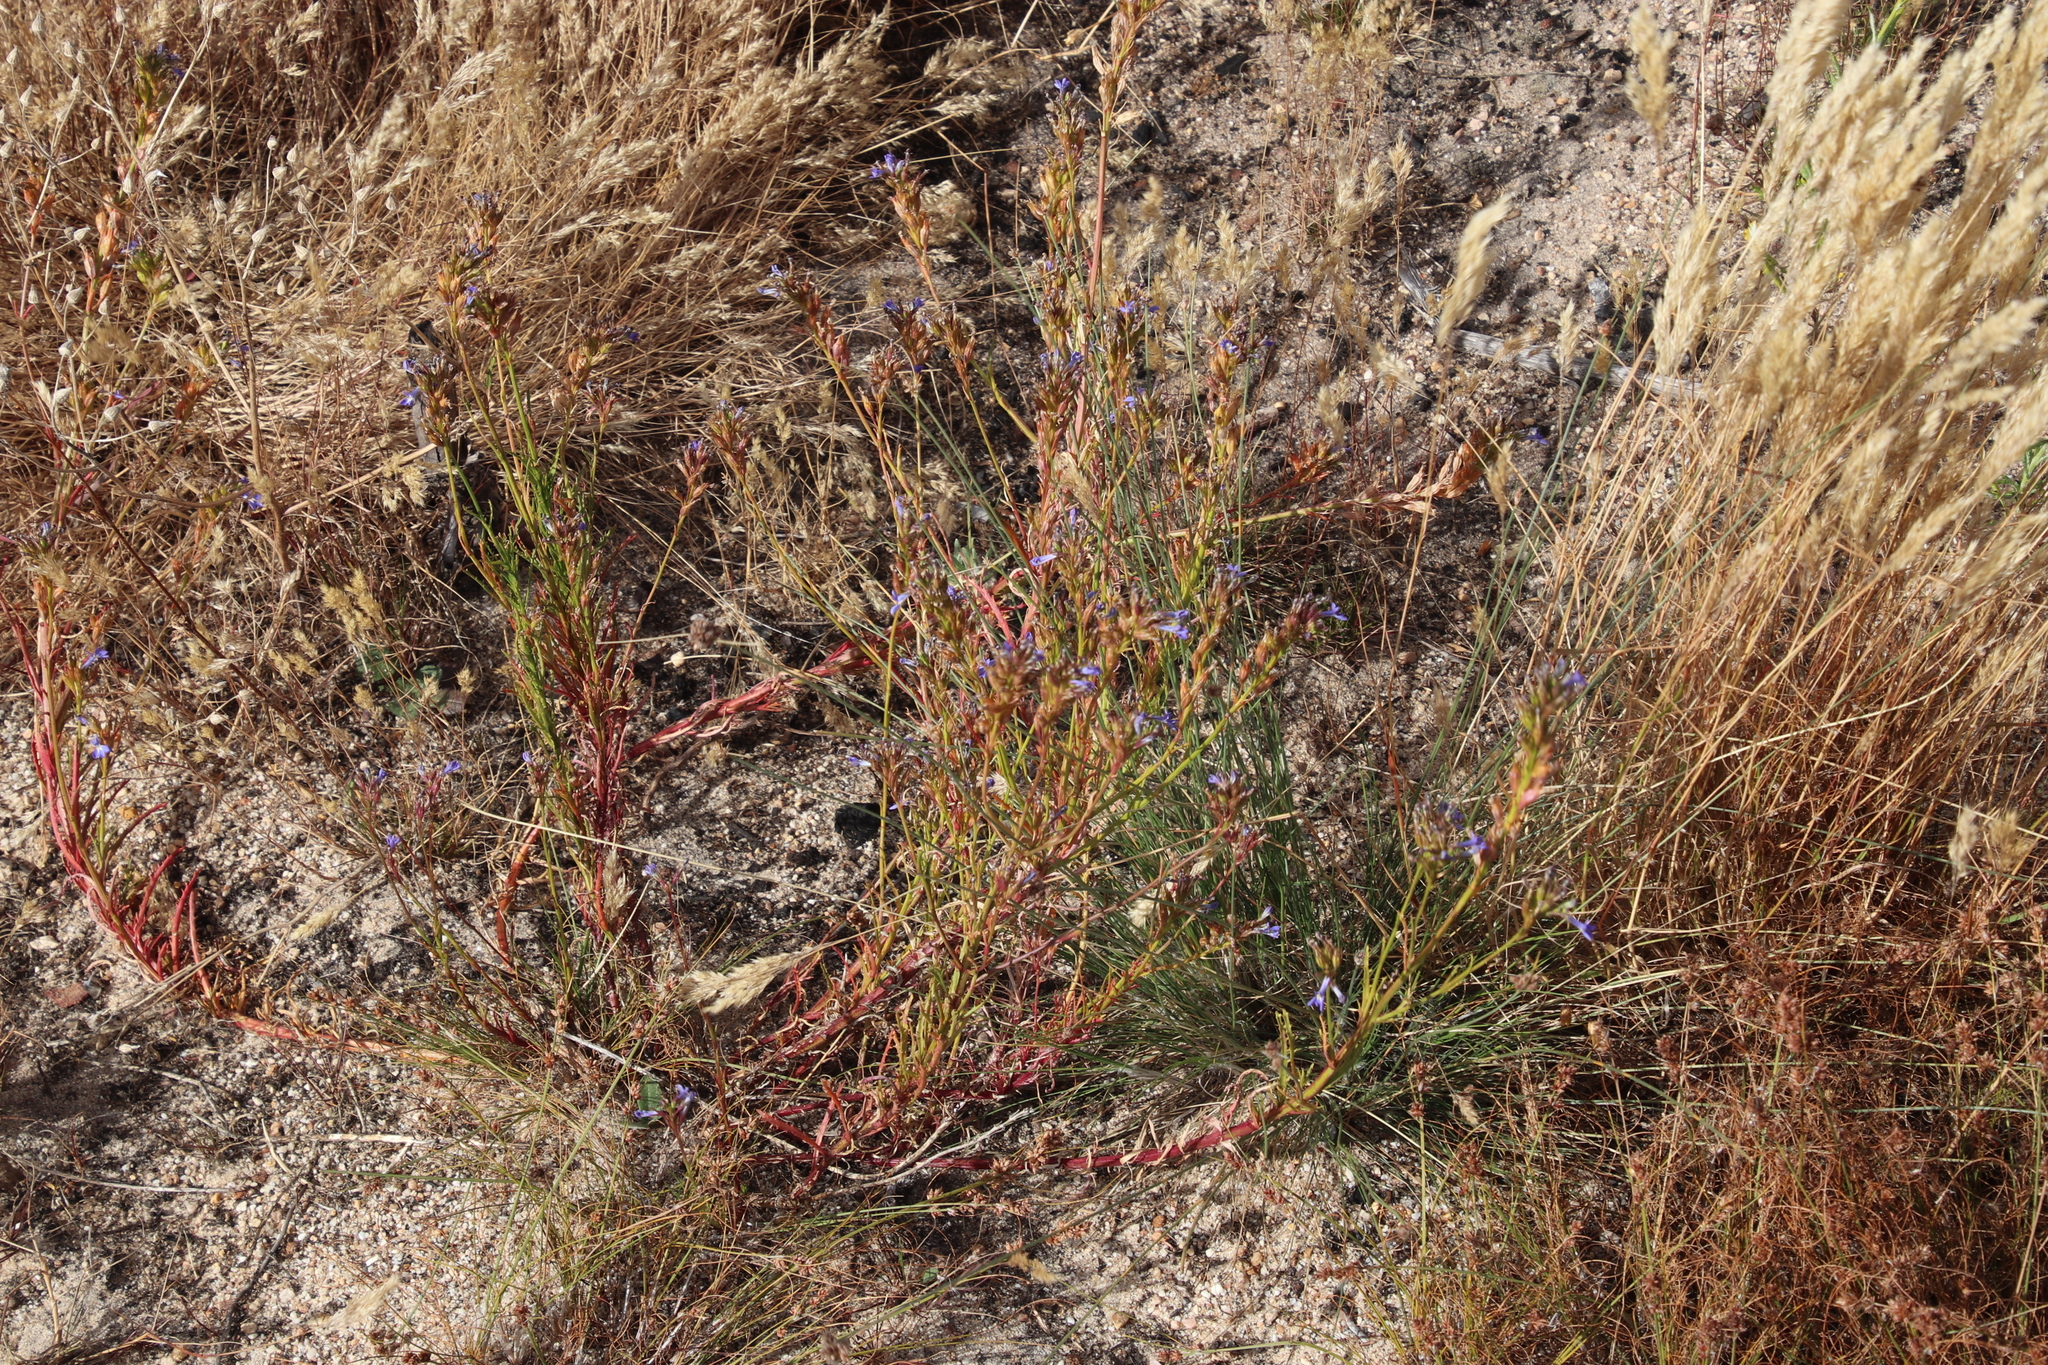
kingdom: Plantae
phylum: Tracheophyta
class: Magnoliopsida
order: Asterales
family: Campanulaceae
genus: Lobelia
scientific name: Lobelia comosa
